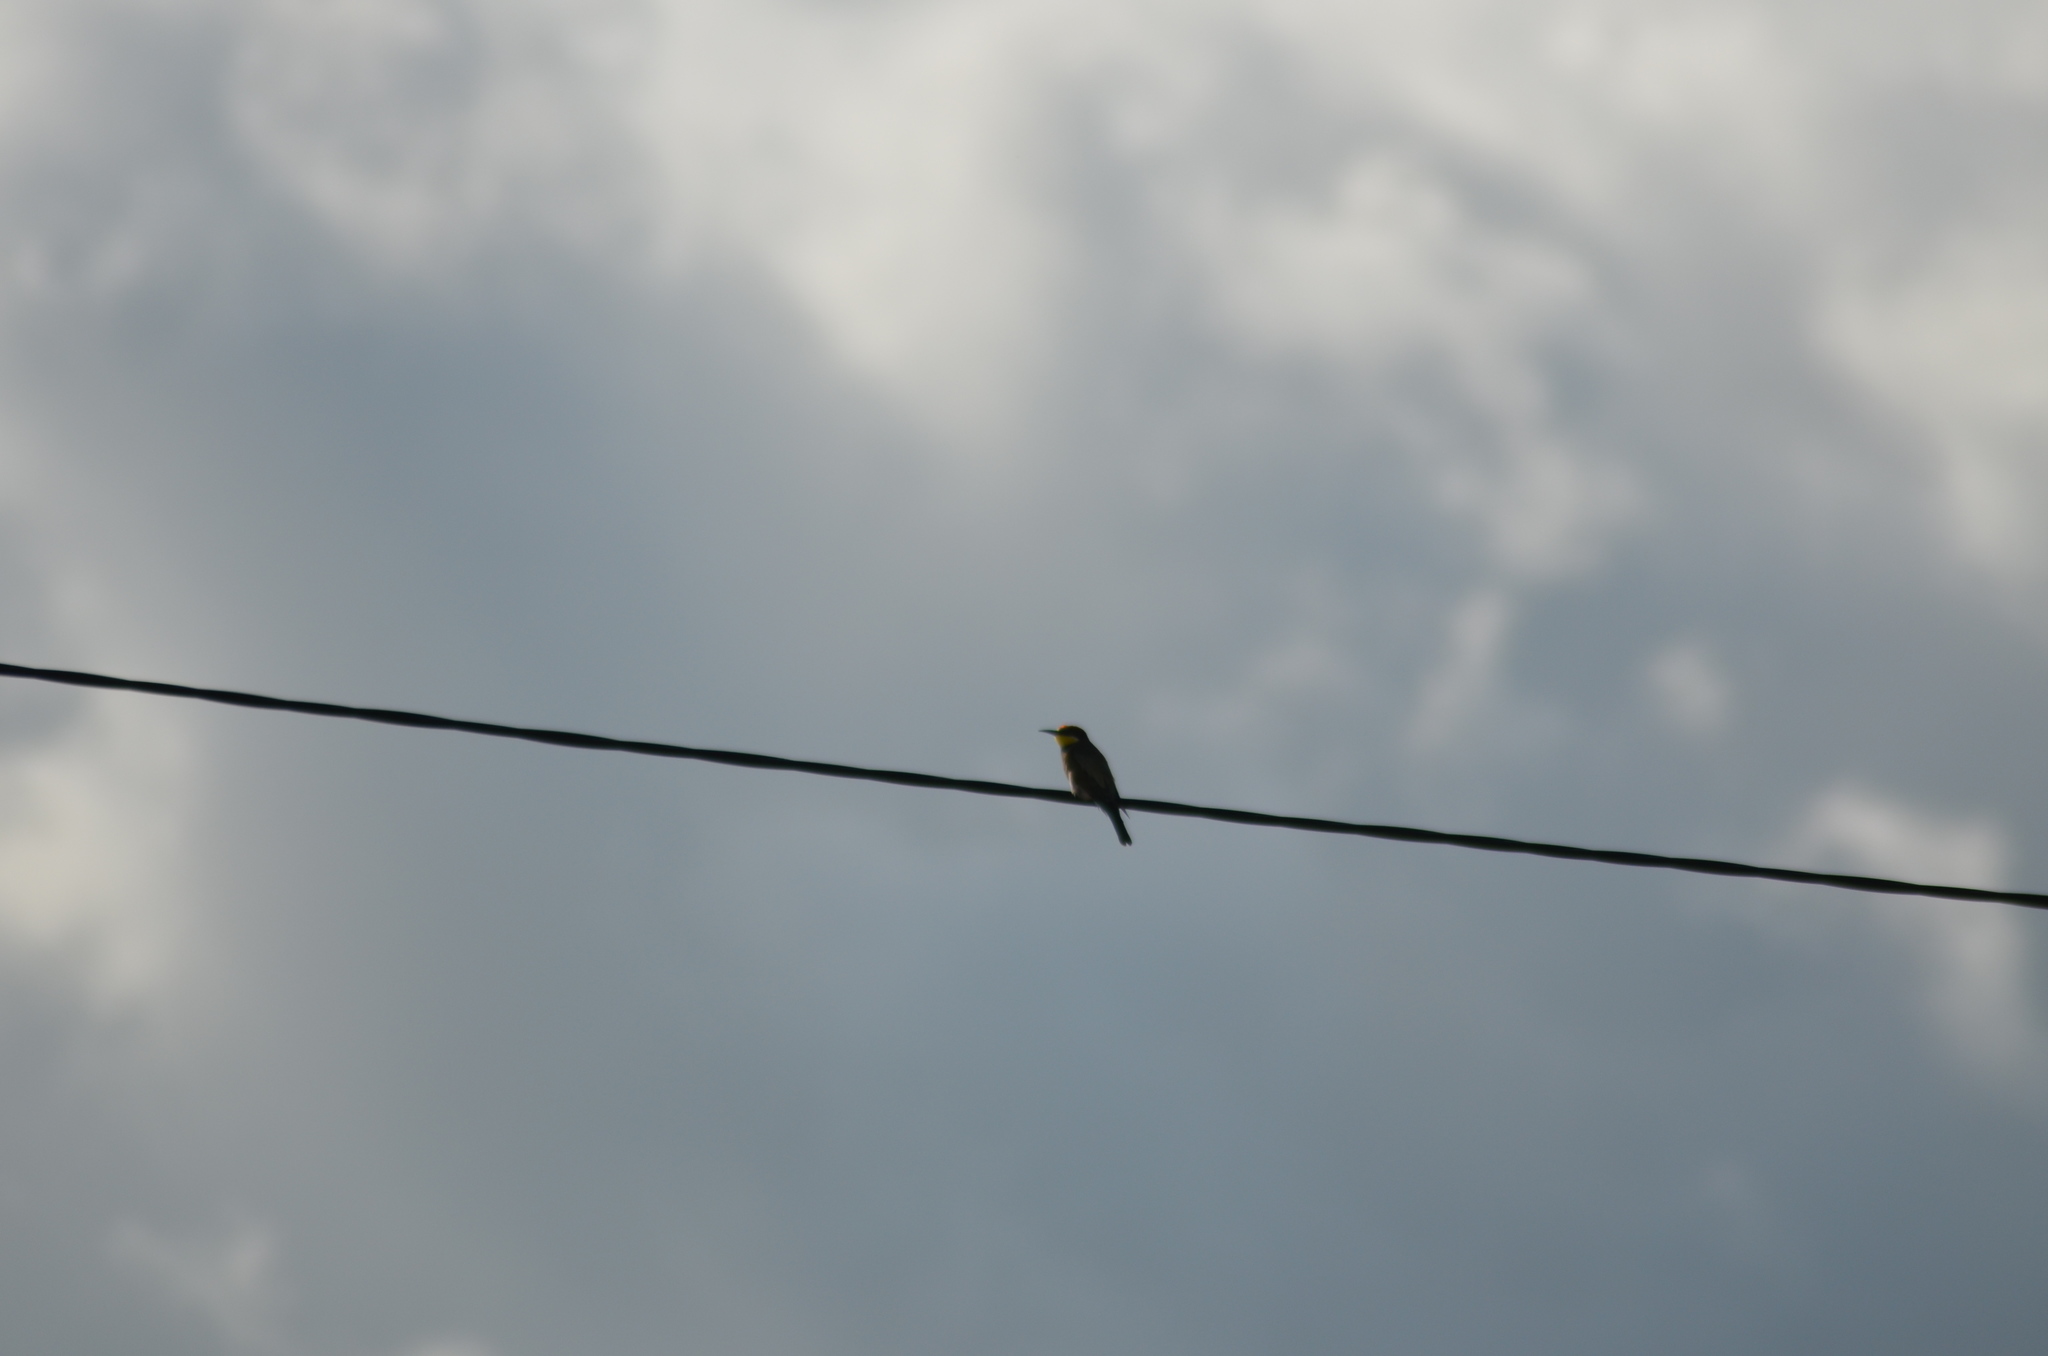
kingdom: Animalia
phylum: Chordata
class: Aves
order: Coraciiformes
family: Meropidae
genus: Merops
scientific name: Merops apiaster
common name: European bee-eater
